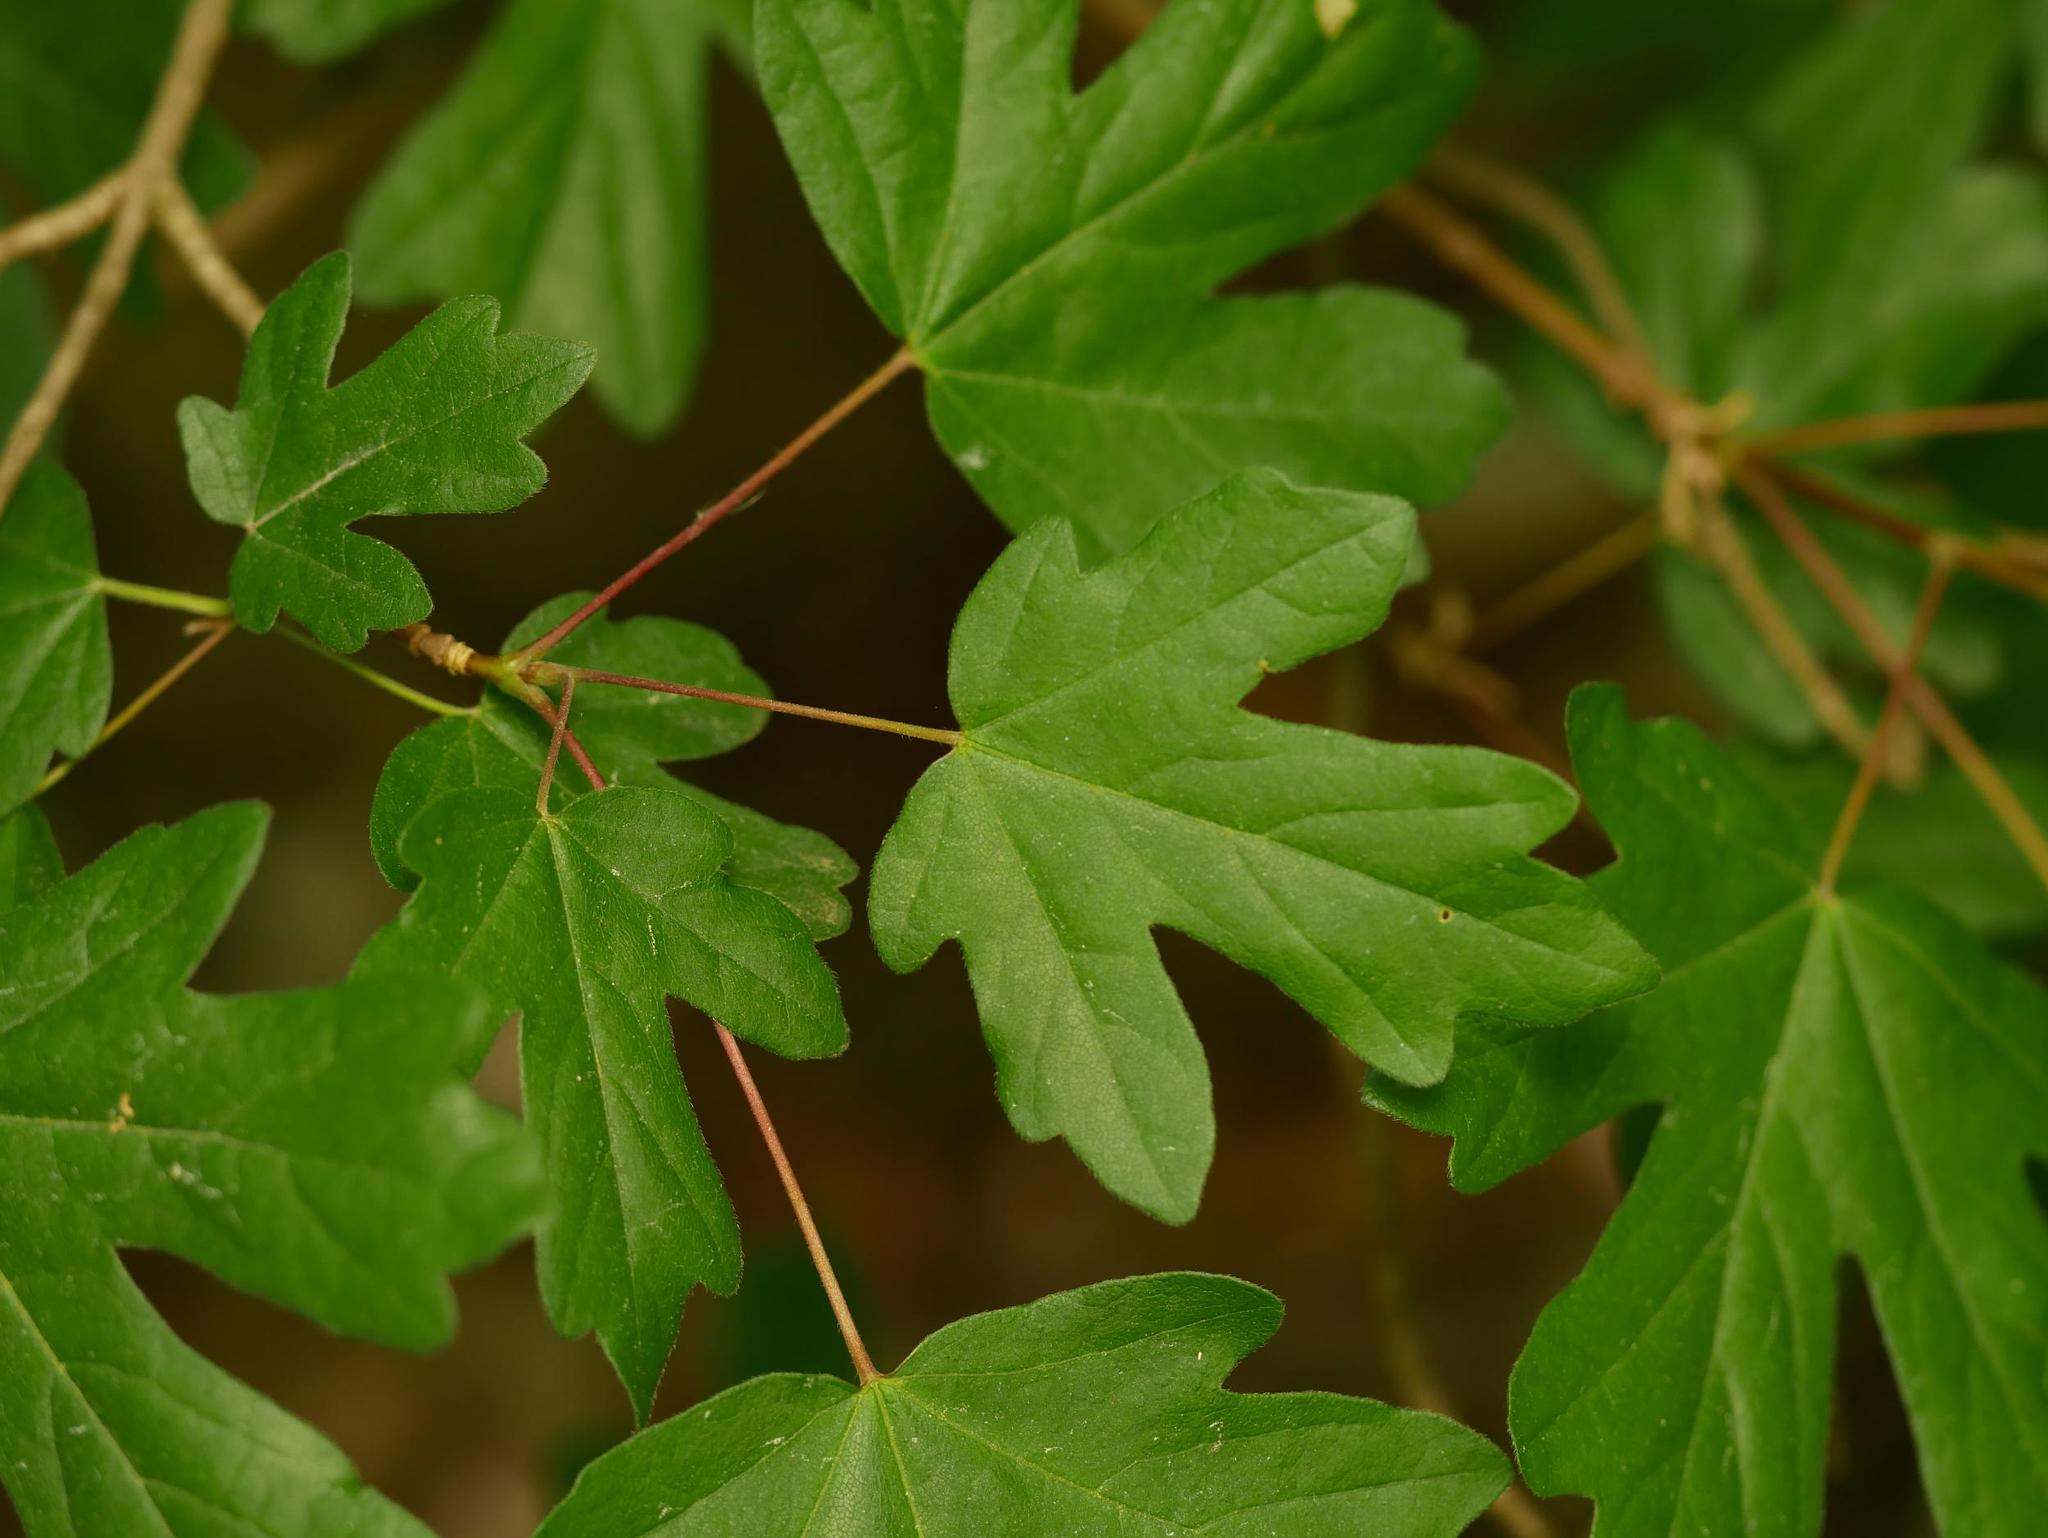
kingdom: Plantae
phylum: Tracheophyta
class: Magnoliopsida
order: Sapindales
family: Sapindaceae
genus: Acer
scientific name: Acer campestre
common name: Field maple
